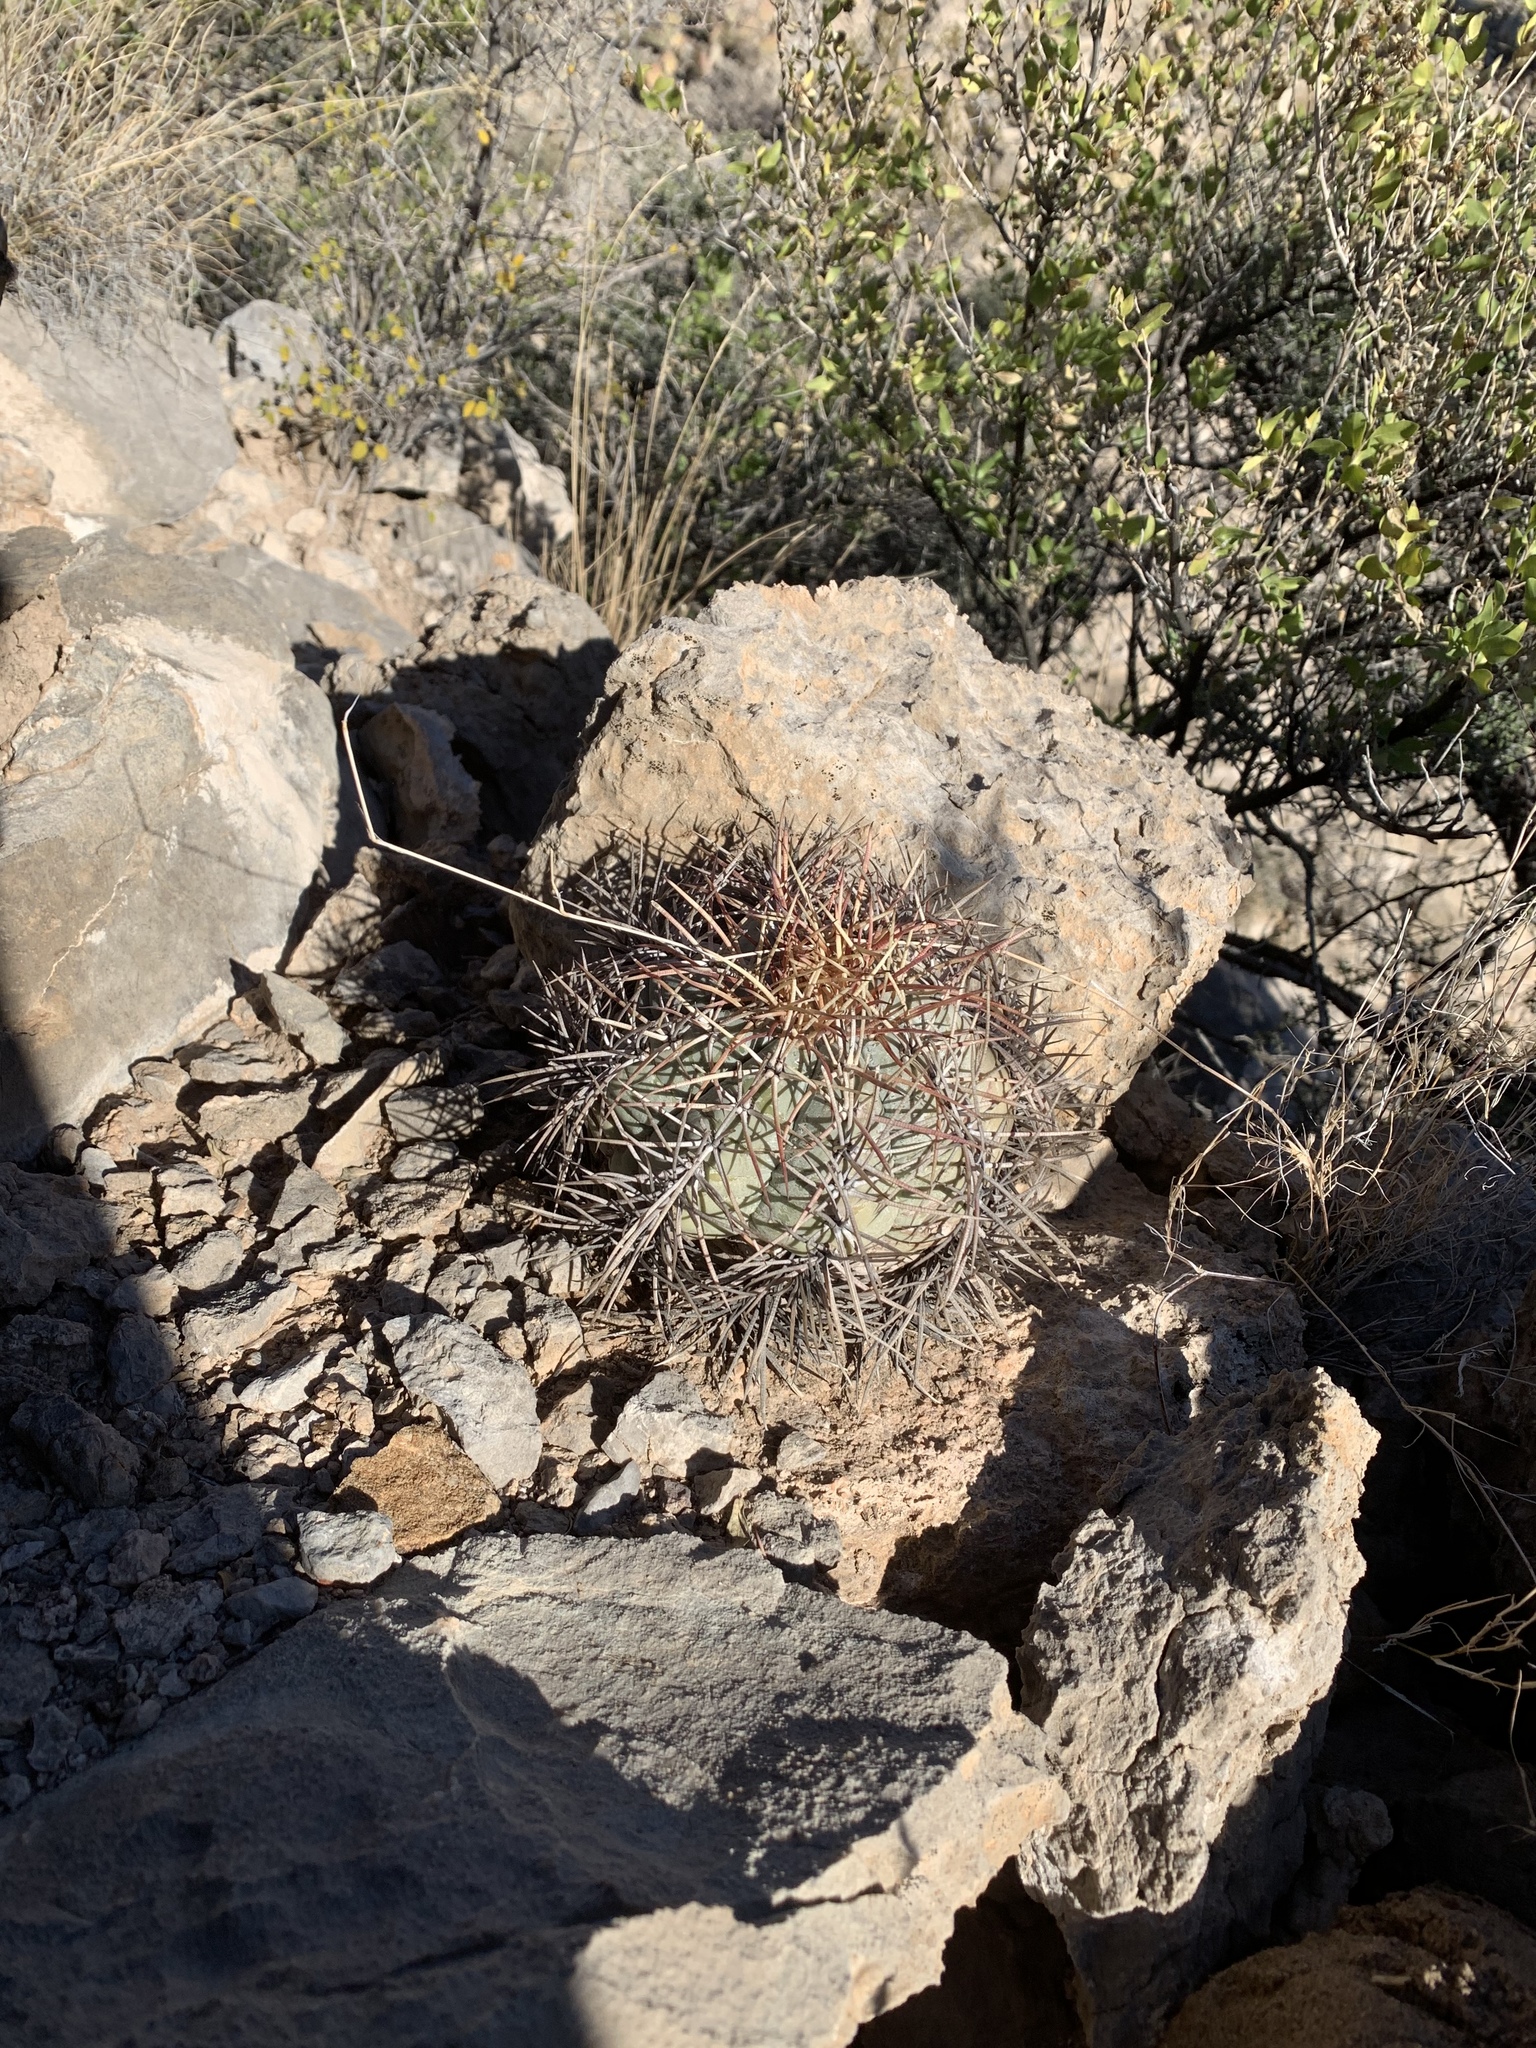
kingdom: Plantae
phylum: Tracheophyta
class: Magnoliopsida
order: Caryophyllales
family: Cactaceae
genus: Echinocactus
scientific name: Echinocactus horizonthalonius
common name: Devilshead
